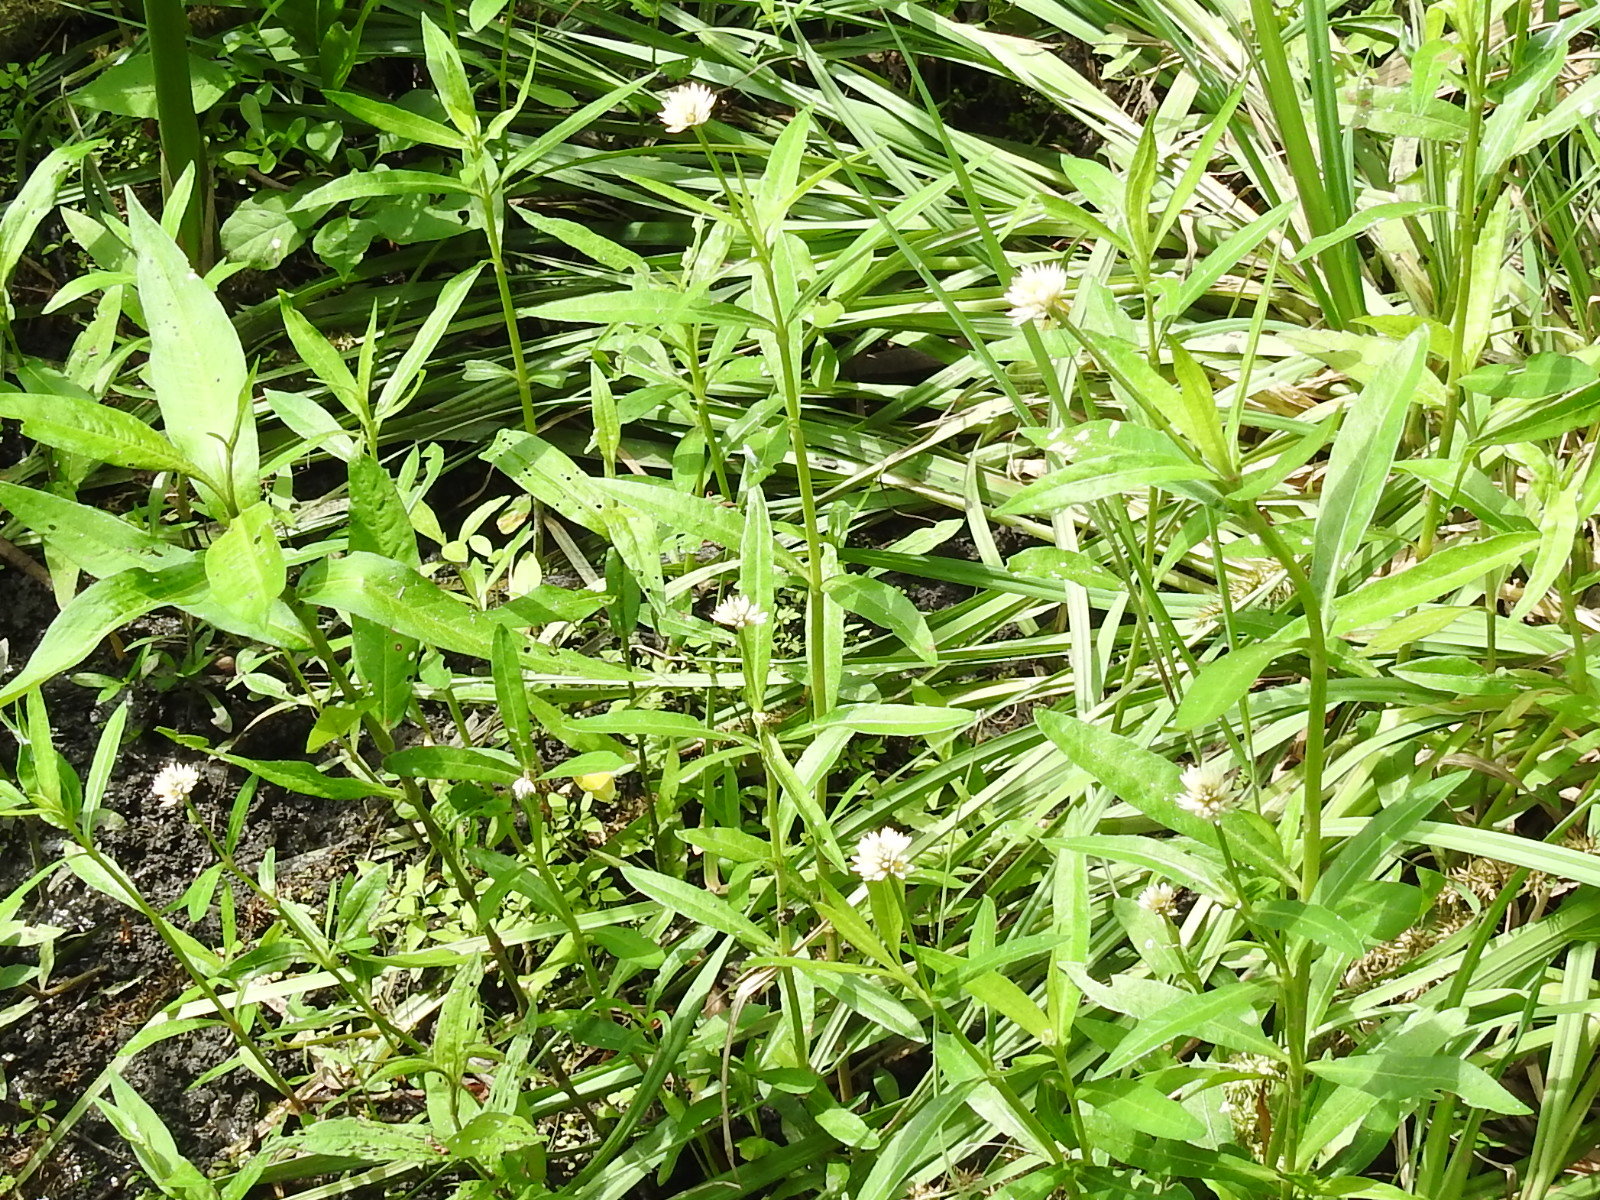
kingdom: Plantae
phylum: Tracheophyta
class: Magnoliopsida
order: Caryophyllales
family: Amaranthaceae
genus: Alternanthera
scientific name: Alternanthera philoxeroides
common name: Alligatorweed
